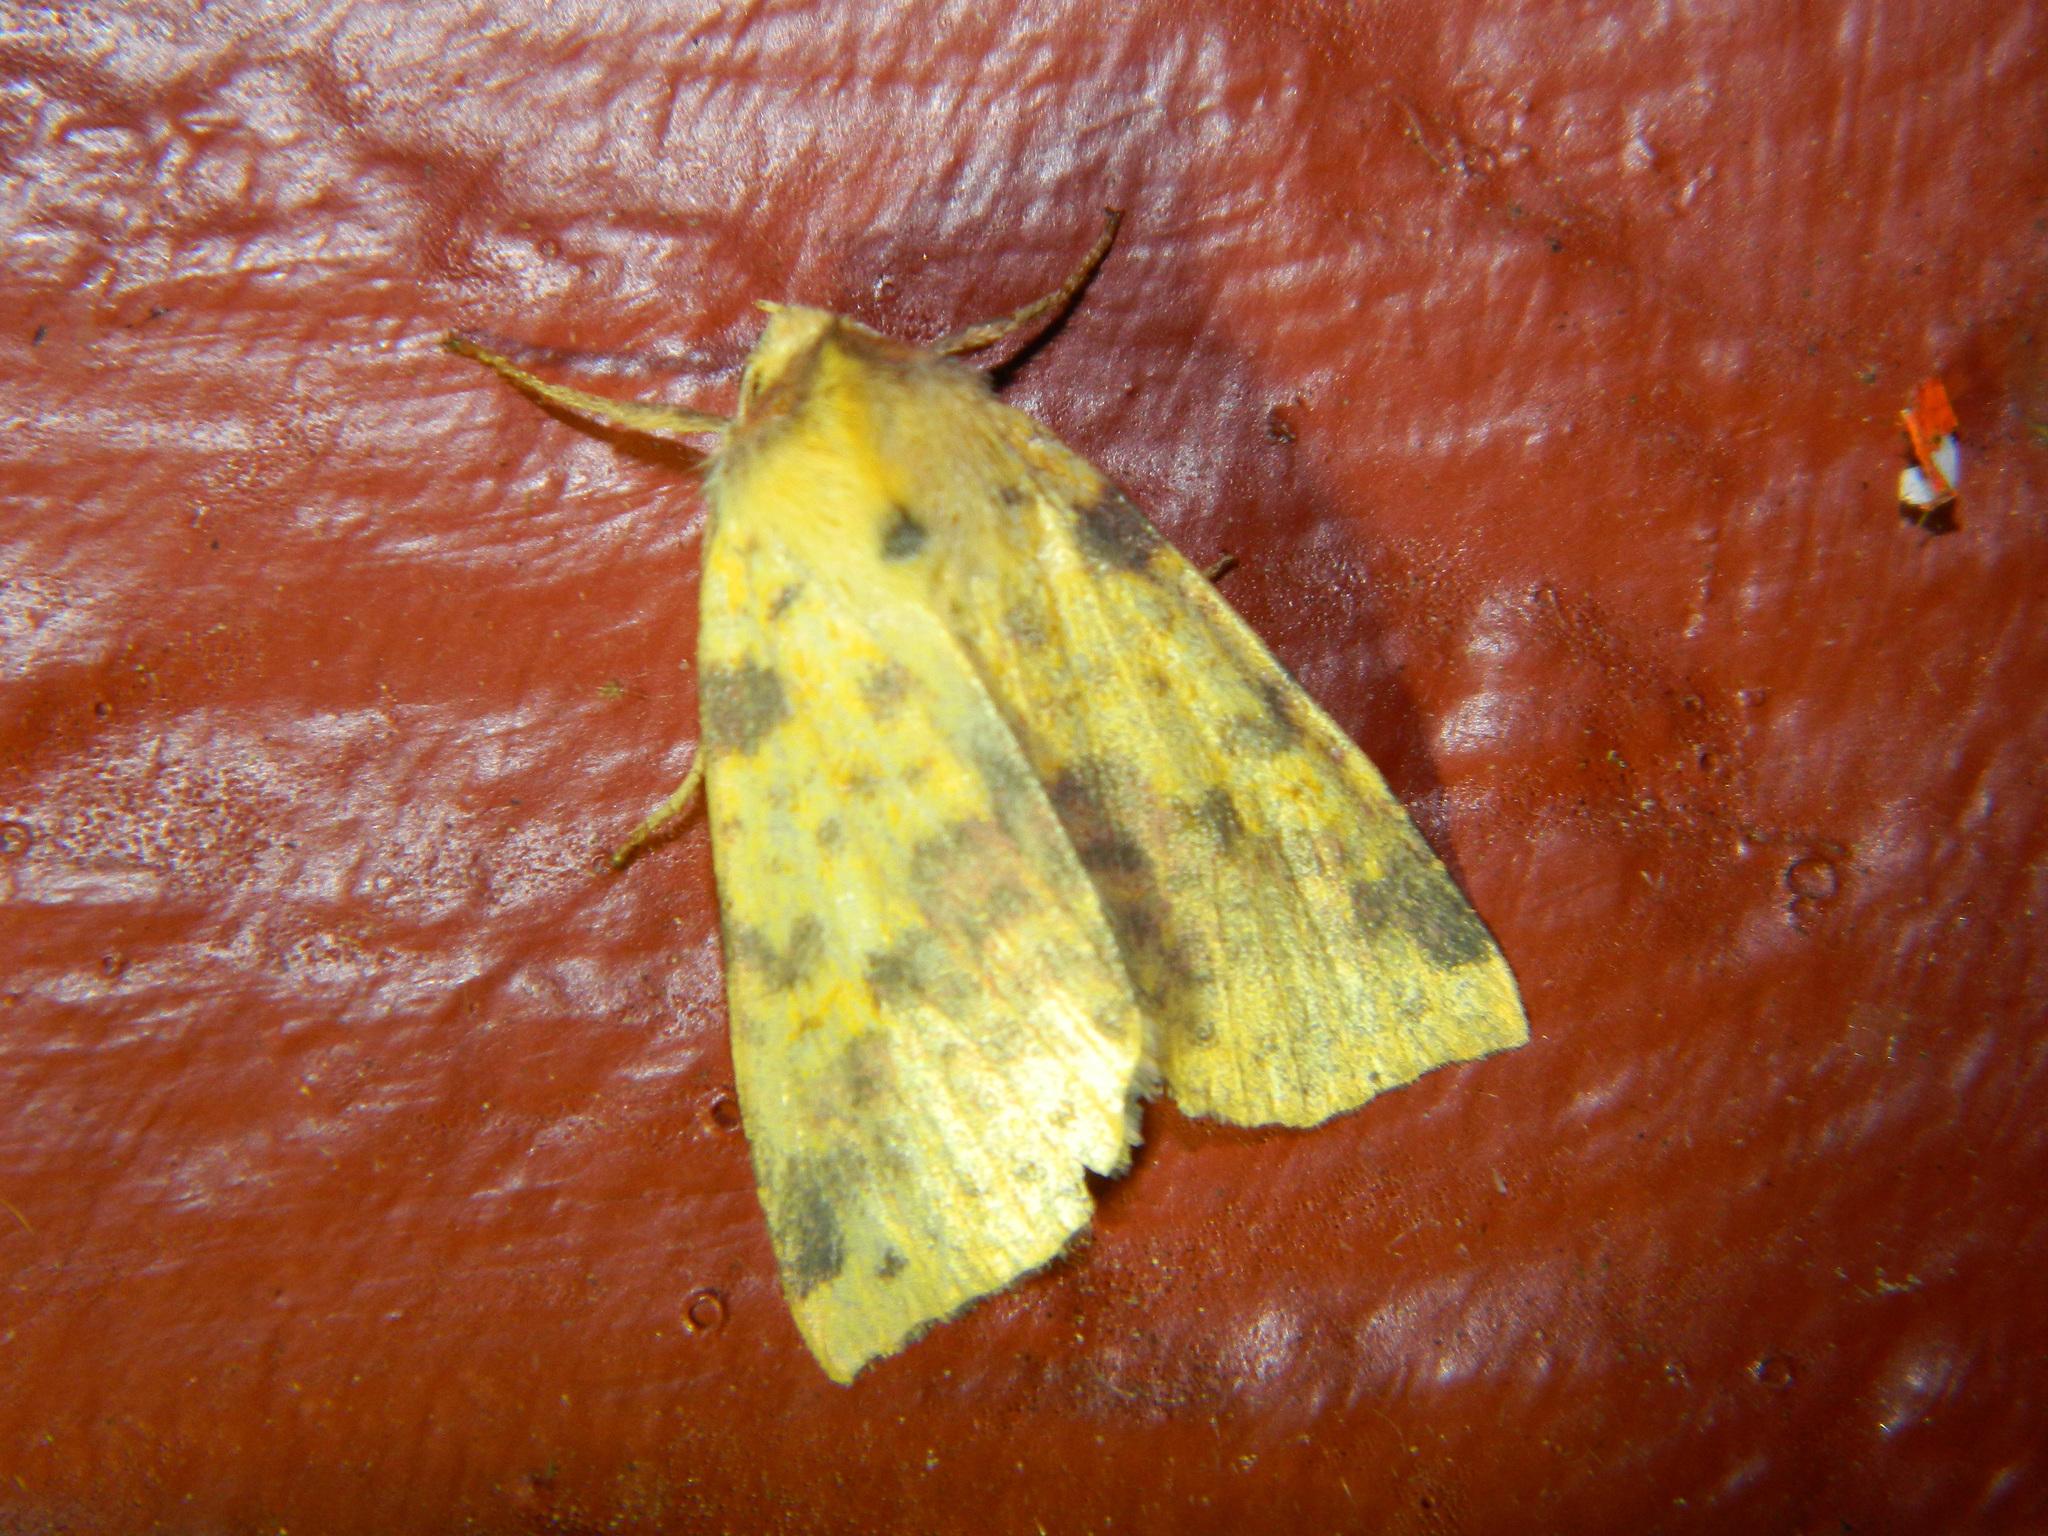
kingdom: Animalia
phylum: Arthropoda
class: Insecta
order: Lepidoptera
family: Noctuidae
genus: Xanthia
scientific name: Xanthia tatago
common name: Pink-banded sallow
